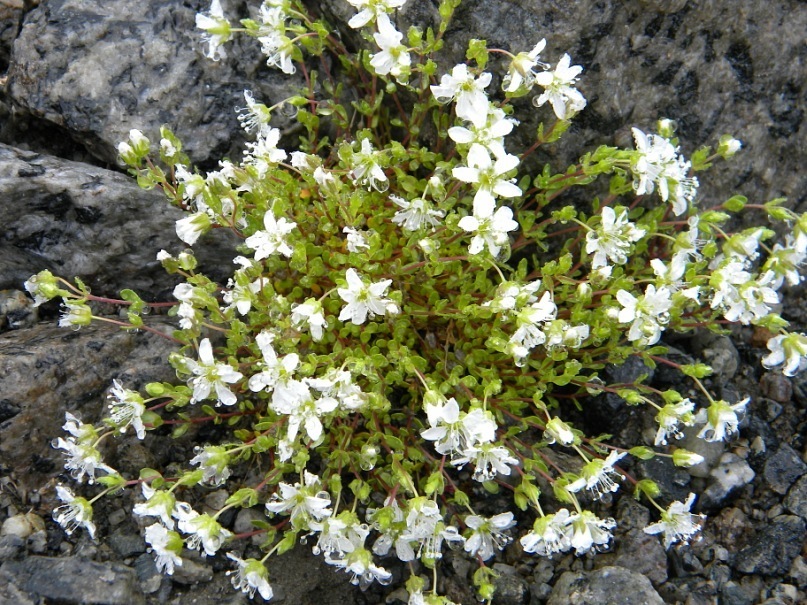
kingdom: Plantae
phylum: Tracheophyta
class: Magnoliopsida
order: Caryophyllales
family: Caryophyllaceae
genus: Arenaria
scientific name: Arenaria pseudofrigida
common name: Tundra sandwort
